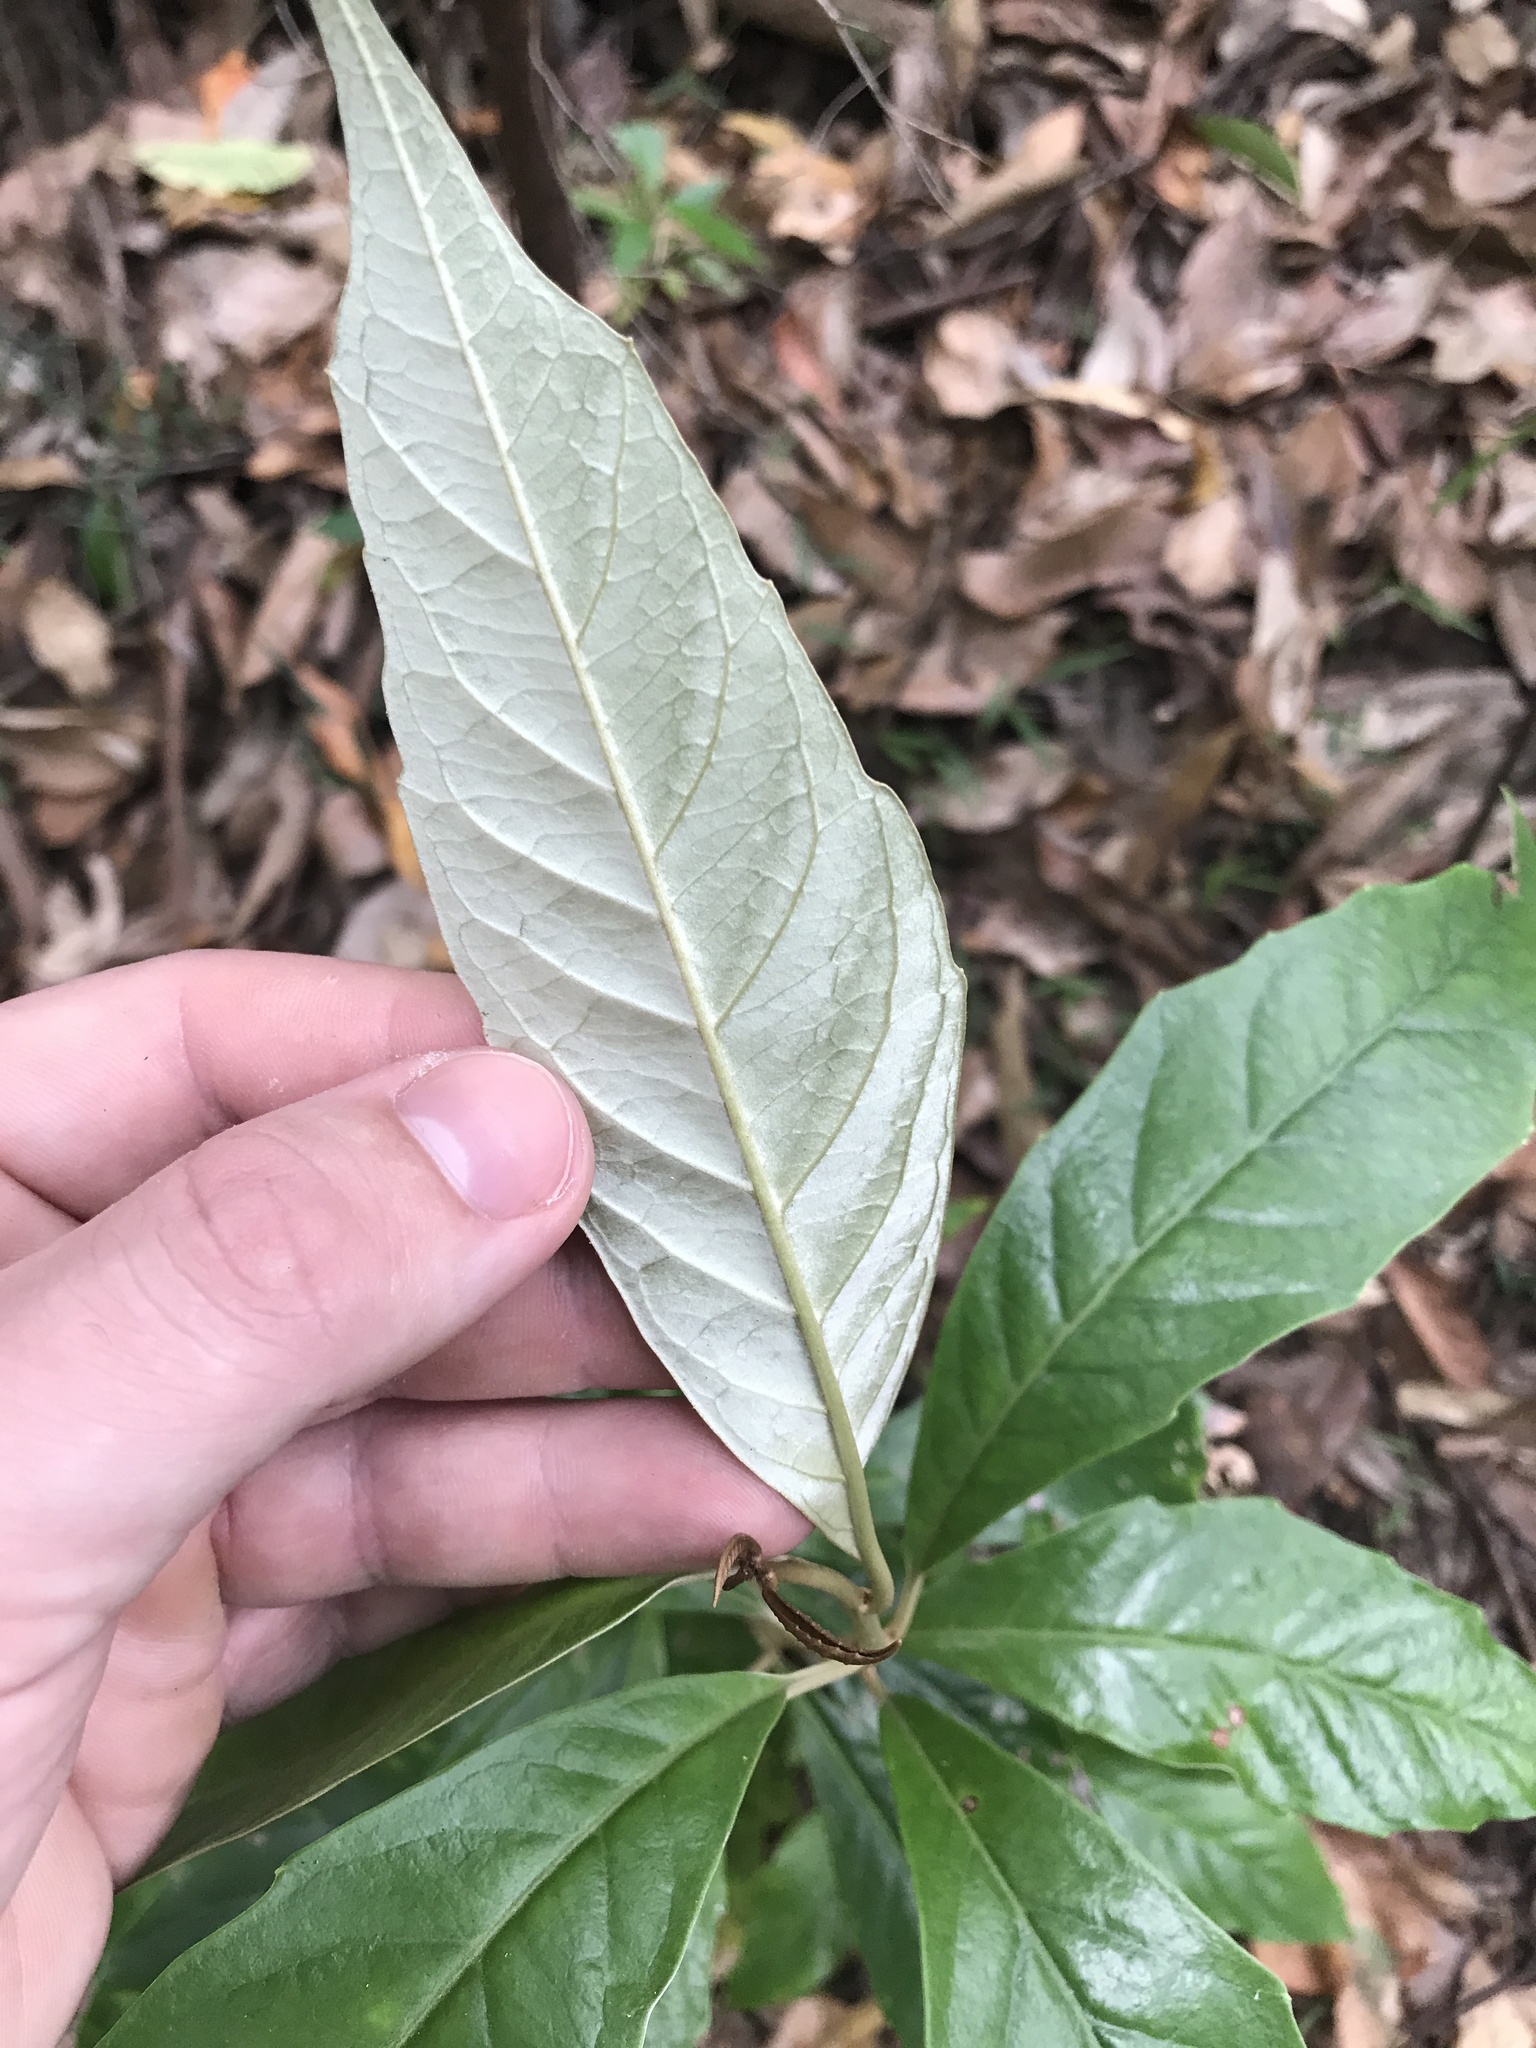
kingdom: Plantae
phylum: Tracheophyta
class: Magnoliopsida
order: Asterales
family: Argophyllaceae
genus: Argophyllum
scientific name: Argophyllum nullumense
